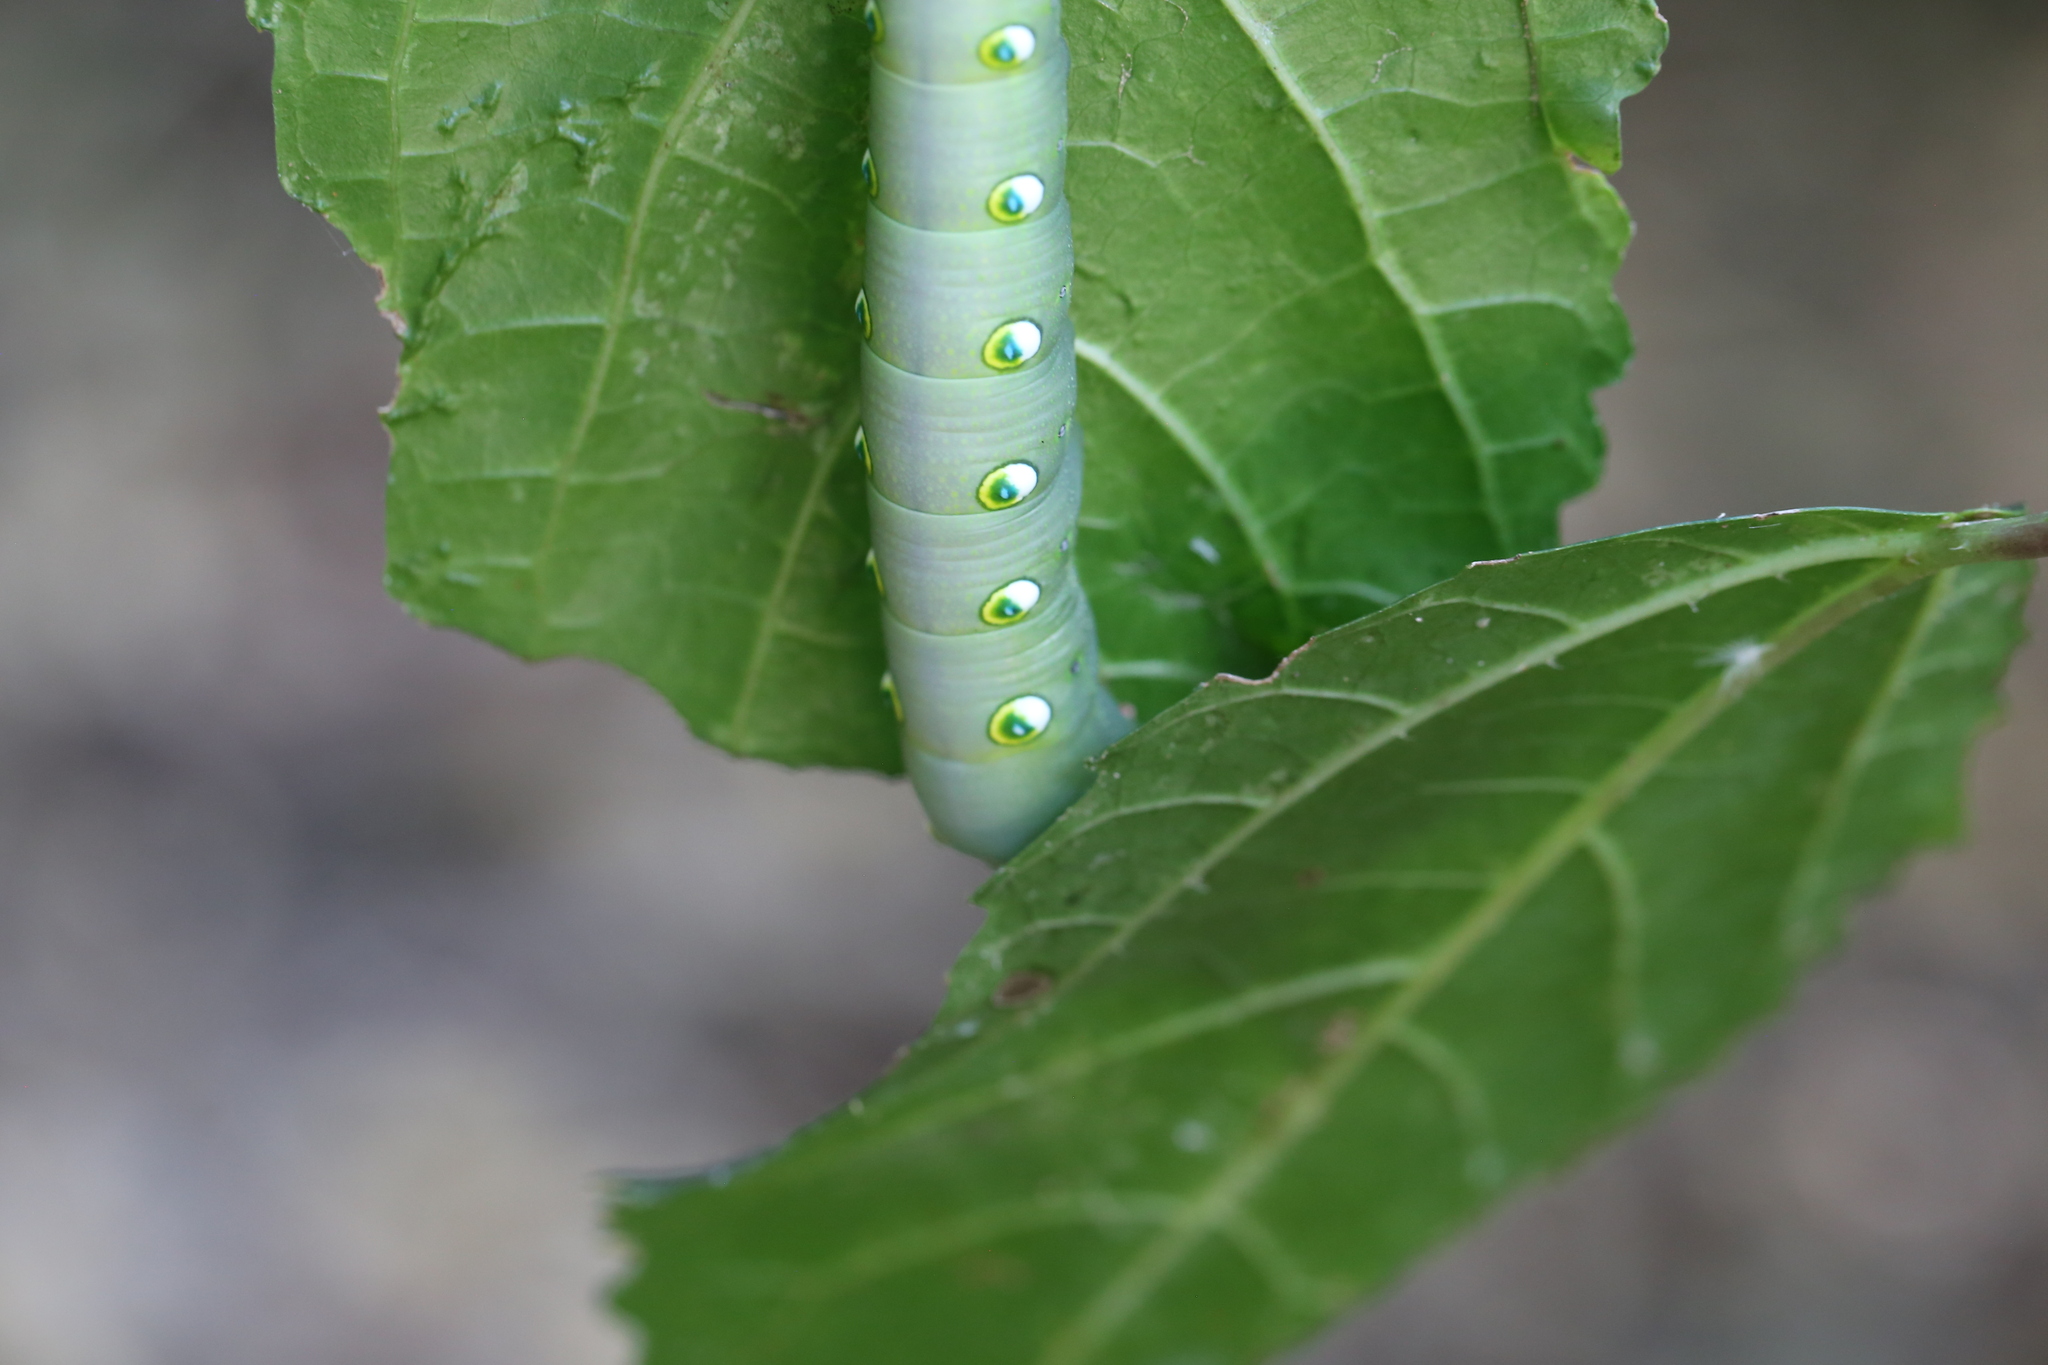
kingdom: Animalia
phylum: Arthropoda
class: Insecta
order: Lepidoptera
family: Sphingidae
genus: Theretra
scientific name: Theretra celata
